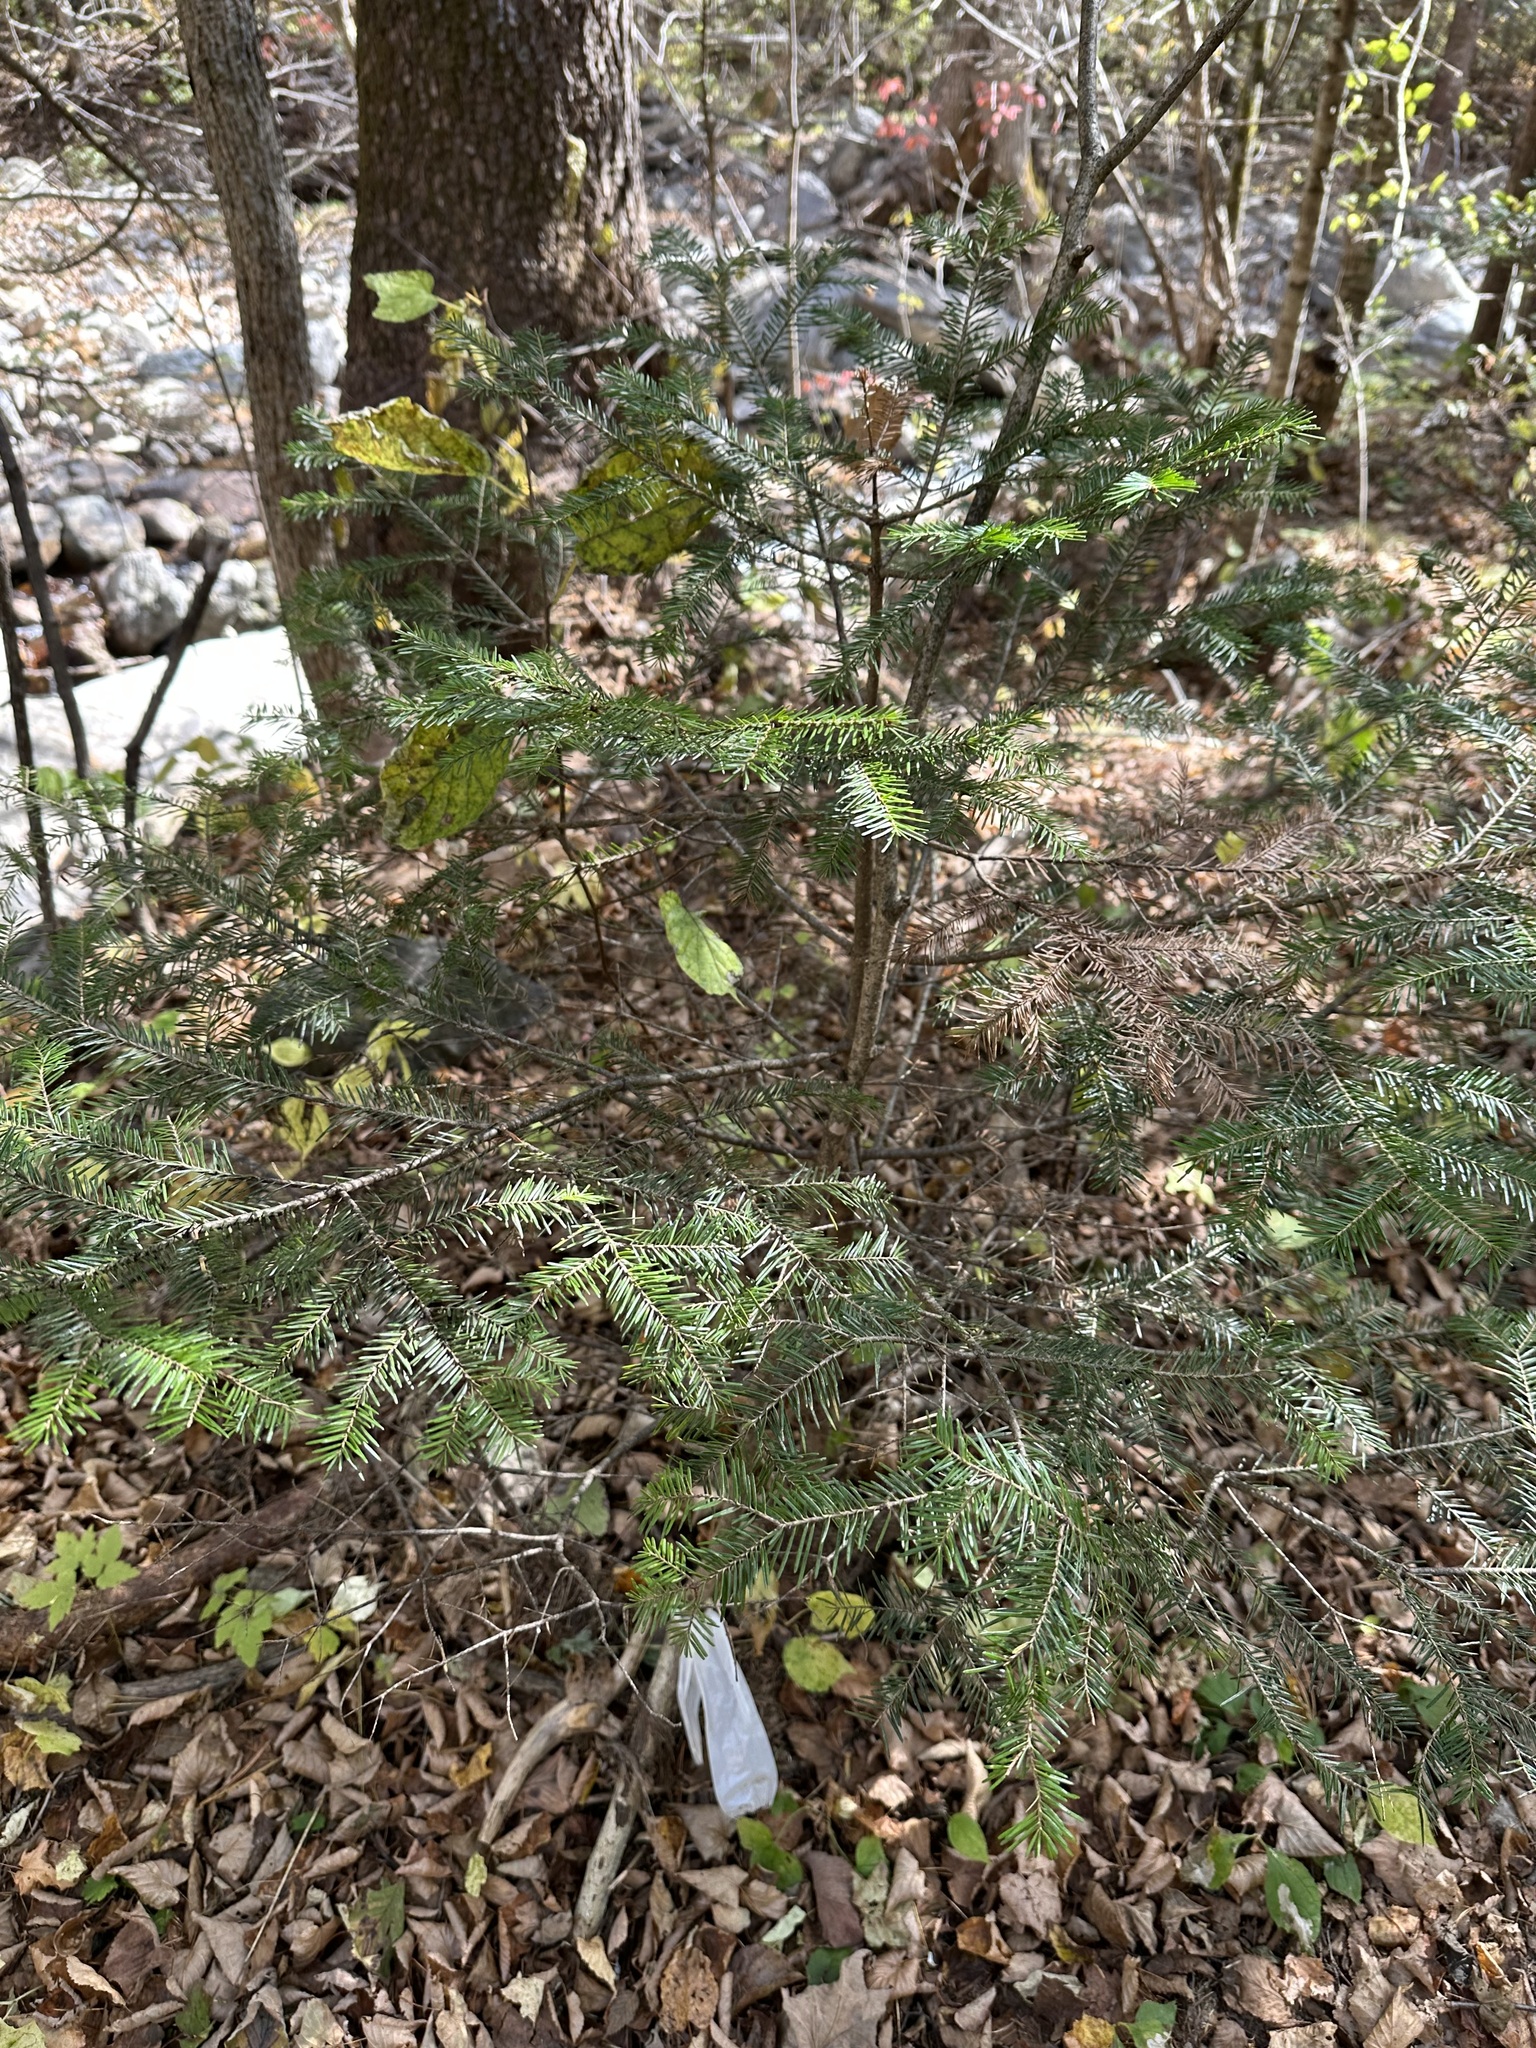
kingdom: Plantae
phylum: Tracheophyta
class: Pinopsida
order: Pinales
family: Pinaceae
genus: Abies
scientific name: Abies nephrolepis
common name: Hinggan fir
